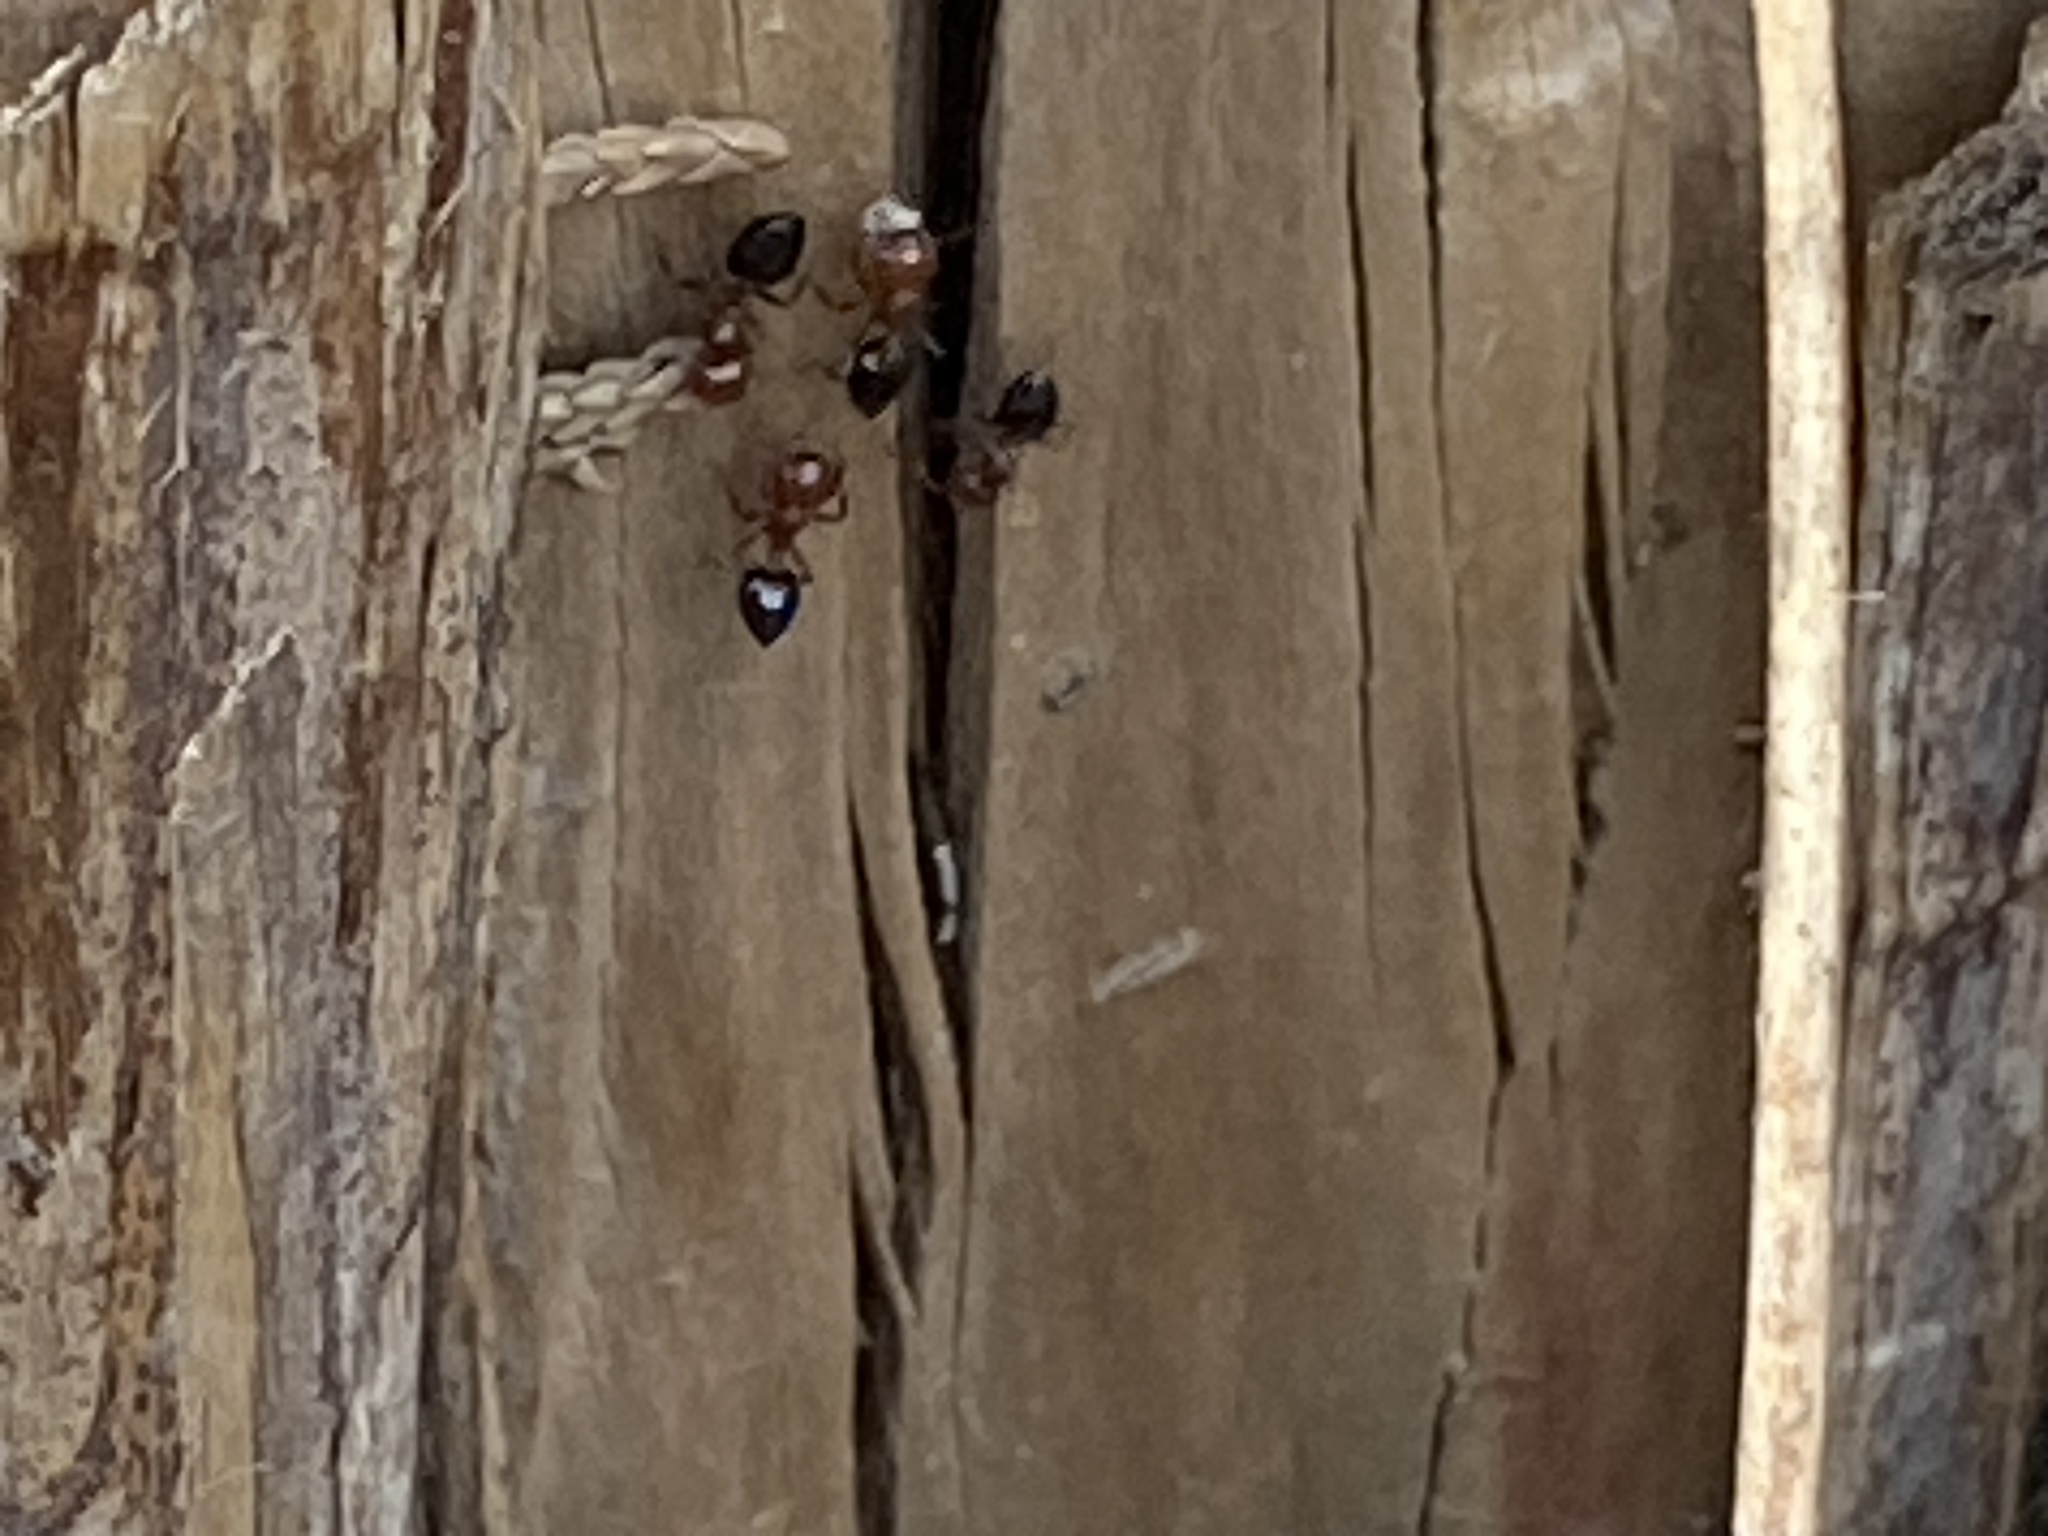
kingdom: Animalia
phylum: Arthropoda
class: Insecta
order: Hymenoptera
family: Formicidae
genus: Crematogaster
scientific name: Crematogaster laeviuscula
